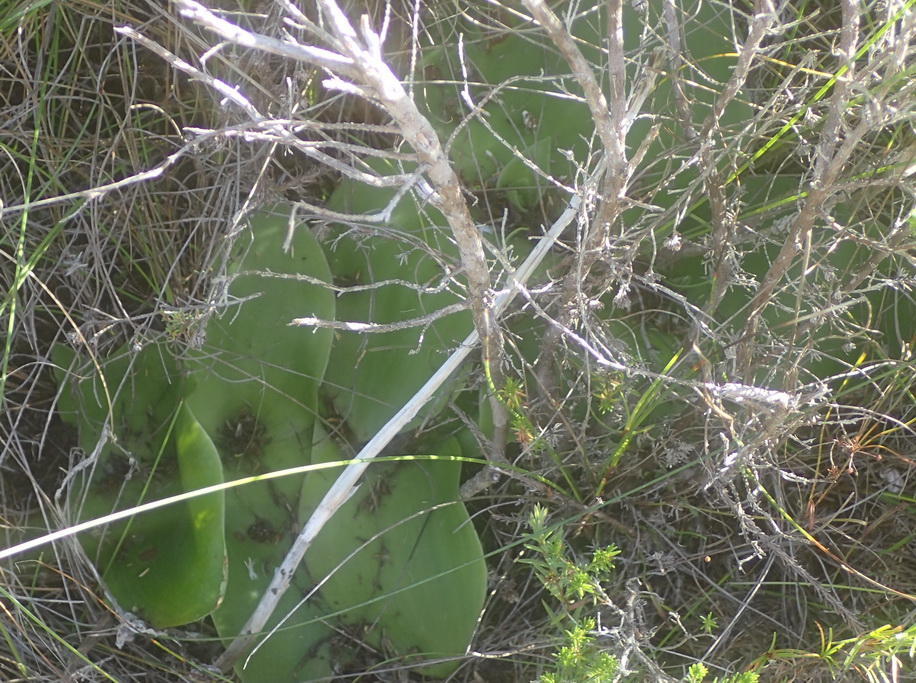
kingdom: Plantae
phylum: Tracheophyta
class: Liliopsida
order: Asparagales
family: Orchidaceae
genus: Satyrium
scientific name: Satyrium princeps
